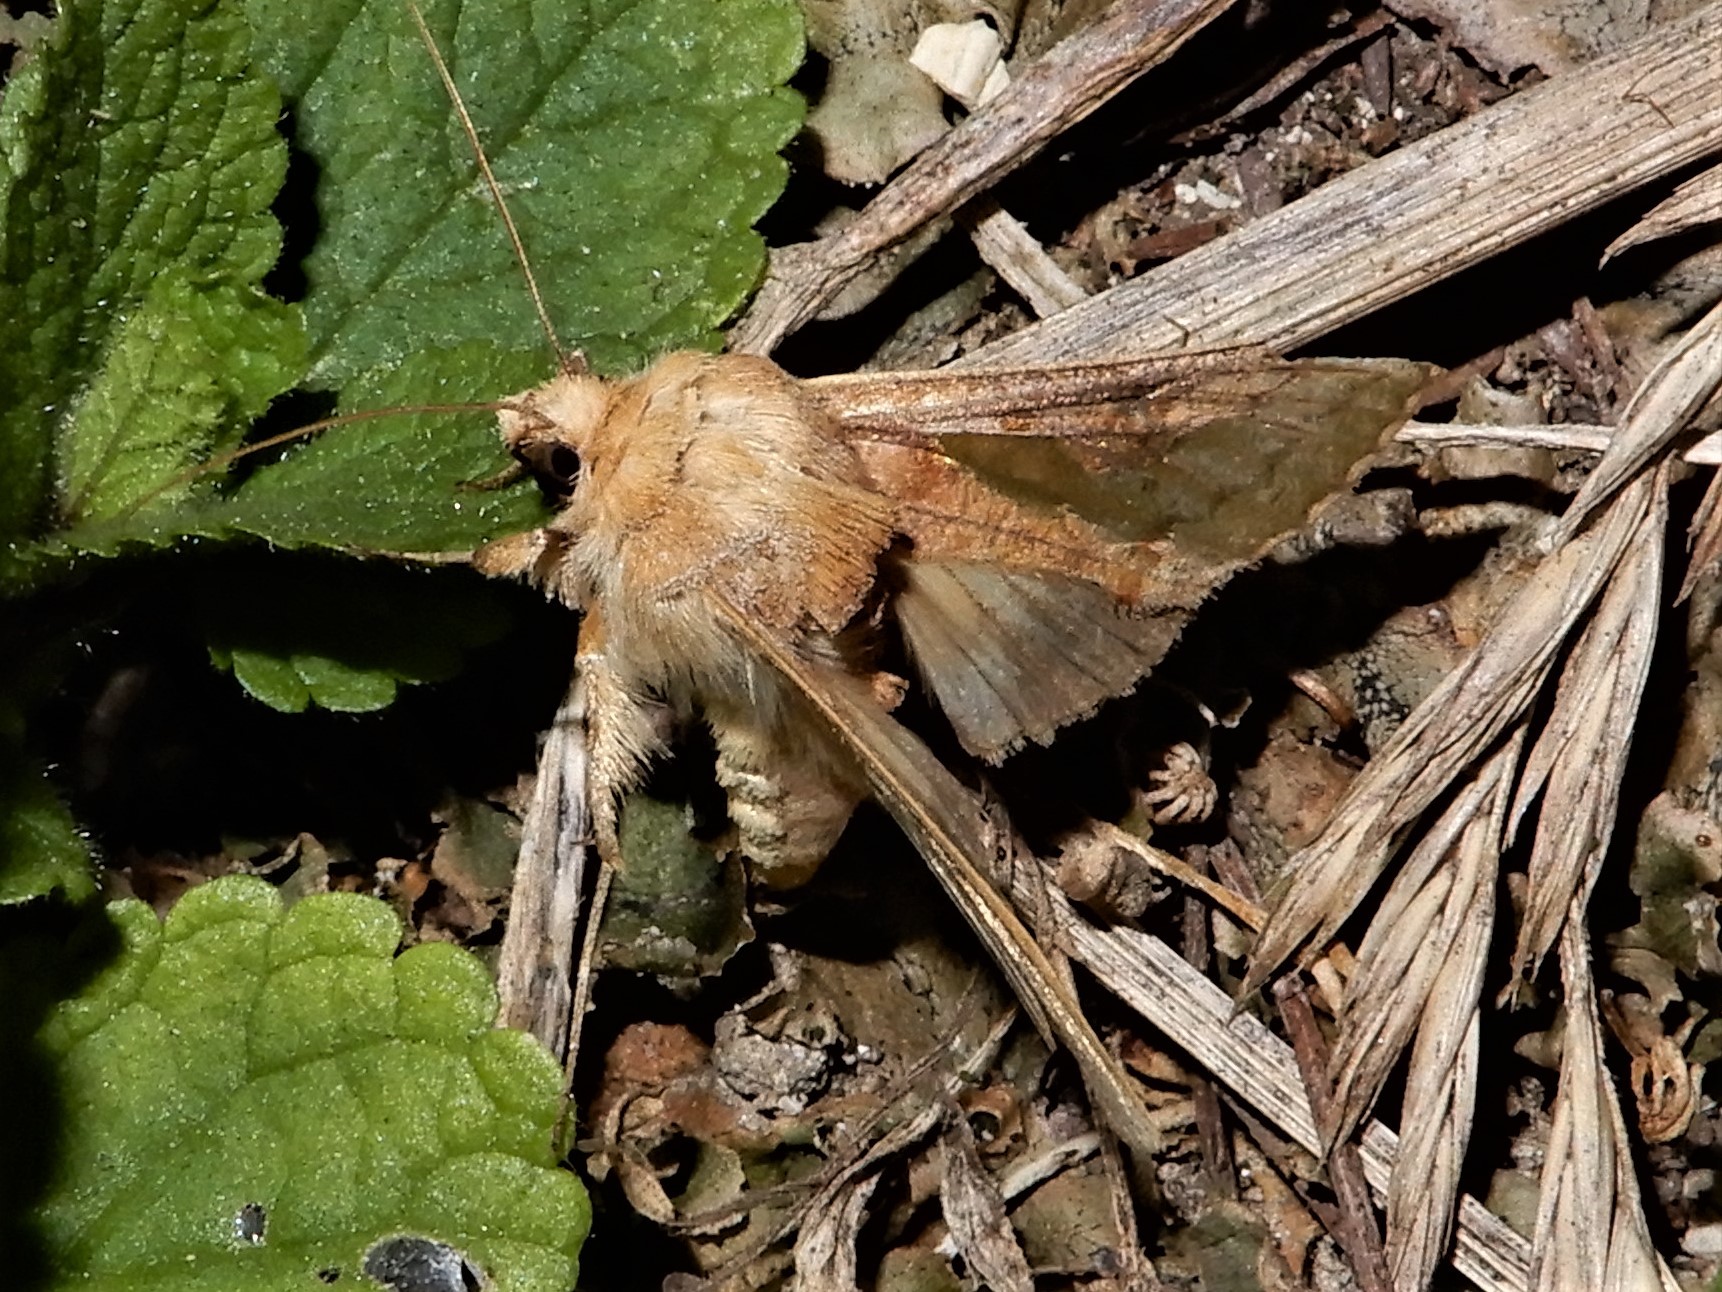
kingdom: Animalia
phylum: Arthropoda
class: Insecta
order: Lepidoptera
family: Noctuidae
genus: Thysanoplusia
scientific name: Thysanoplusia orichalcea
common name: Slender burnished brass, golden plusia
